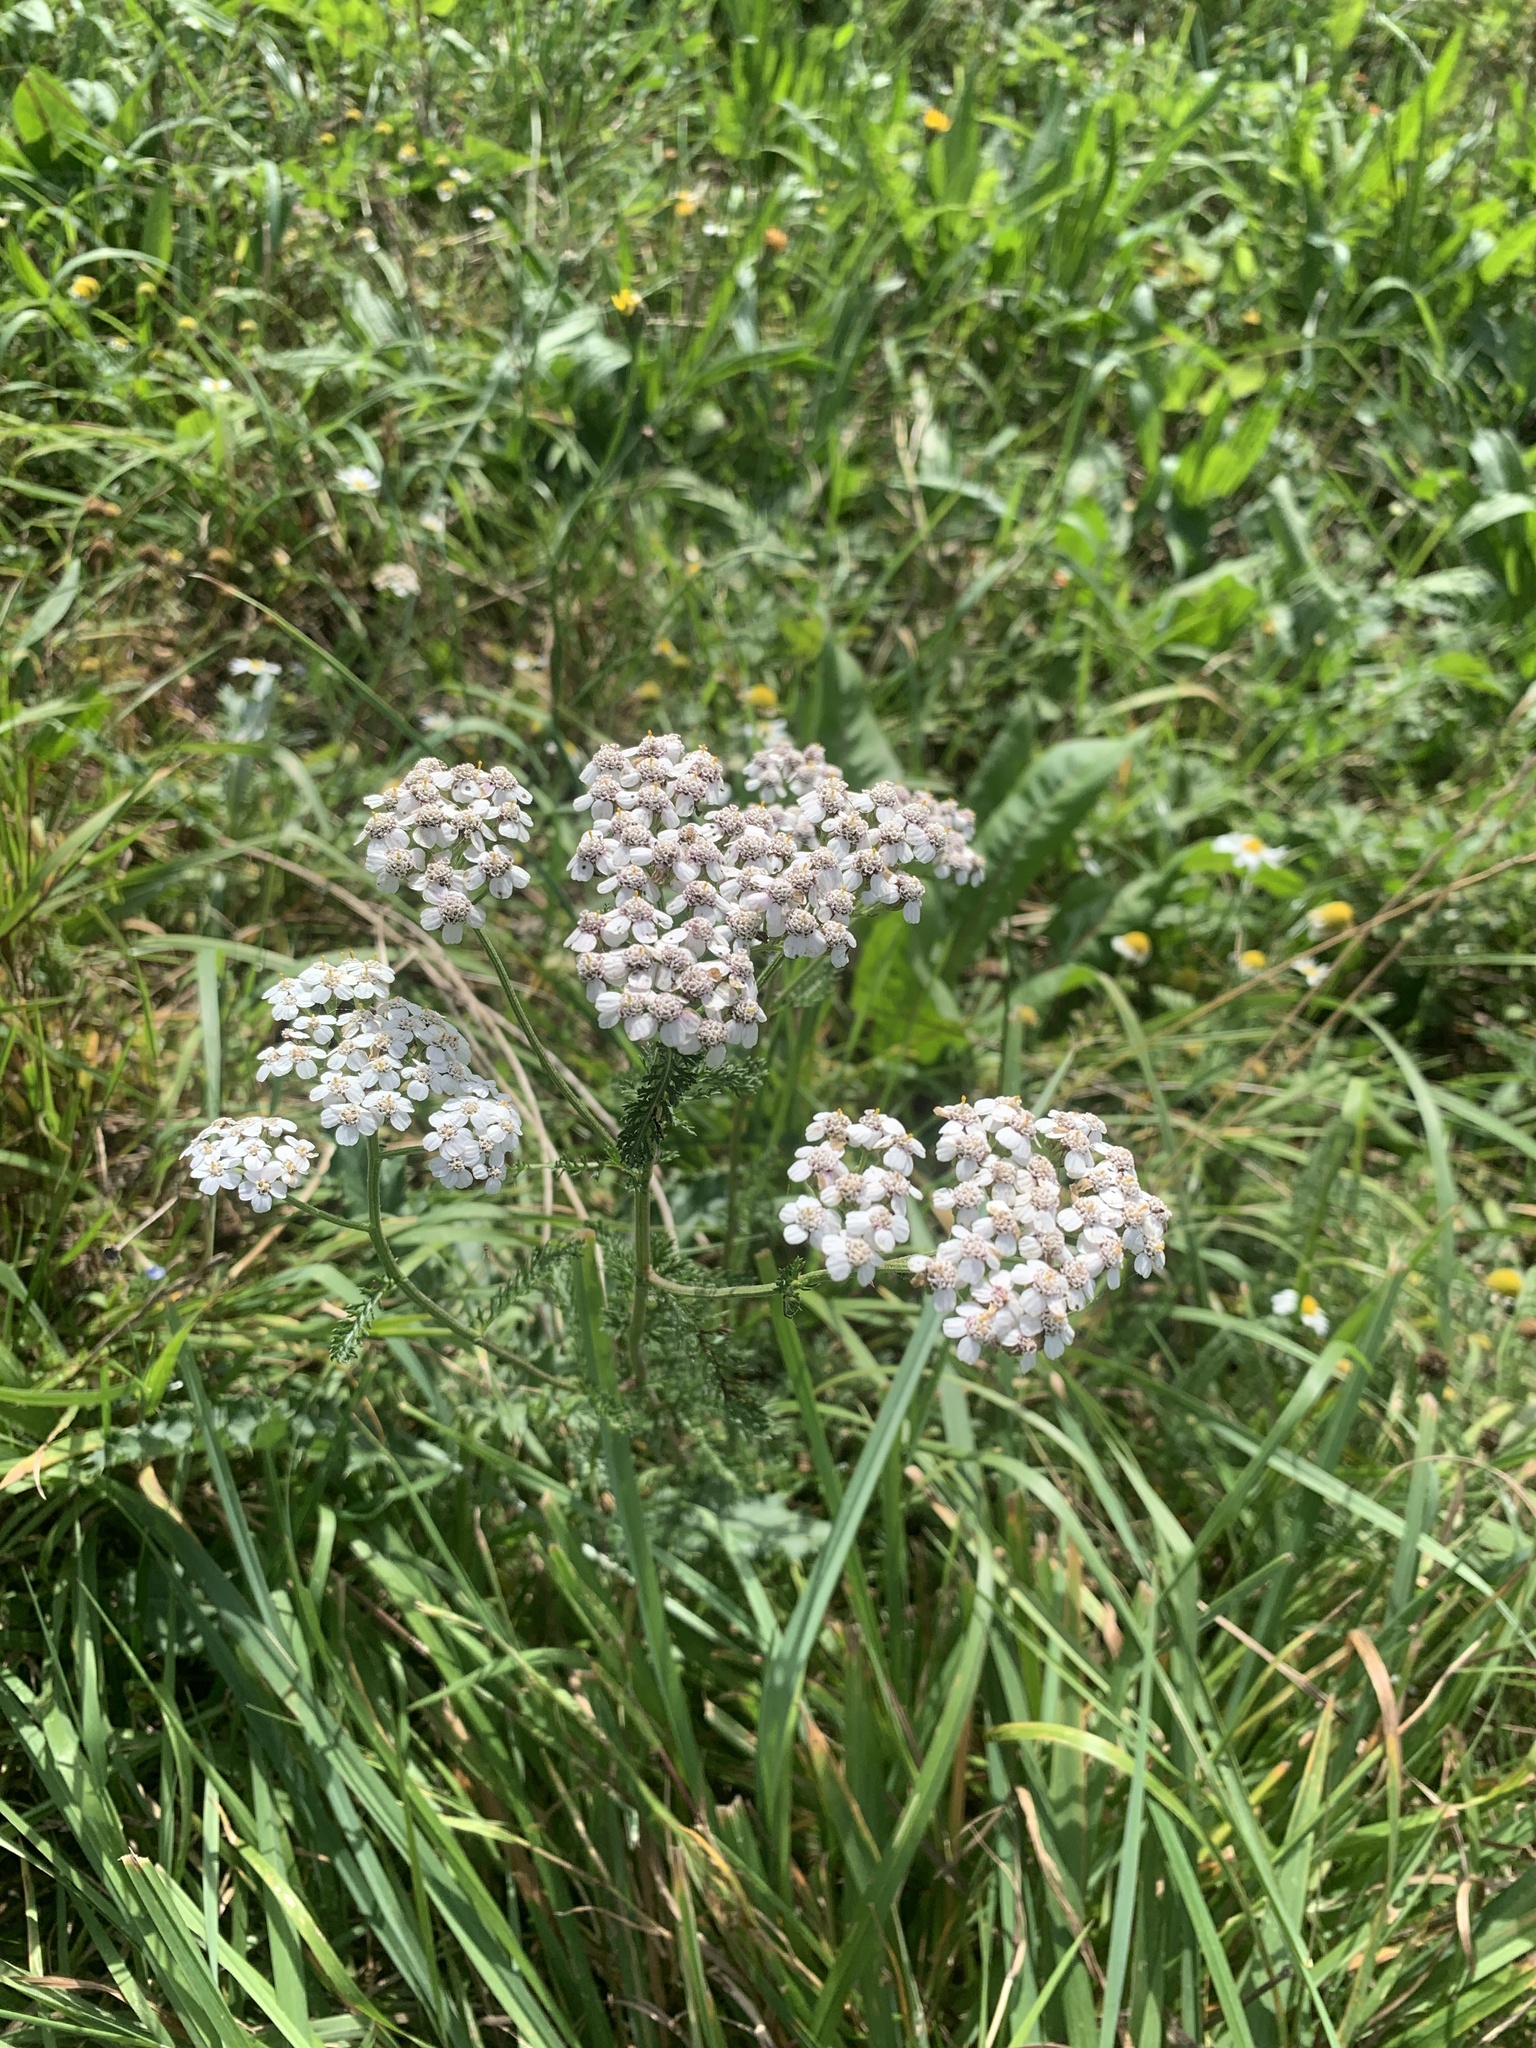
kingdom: Plantae
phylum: Tracheophyta
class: Magnoliopsida
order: Asterales
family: Asteraceae
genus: Achillea
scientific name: Achillea millefolium
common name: Yarrow
